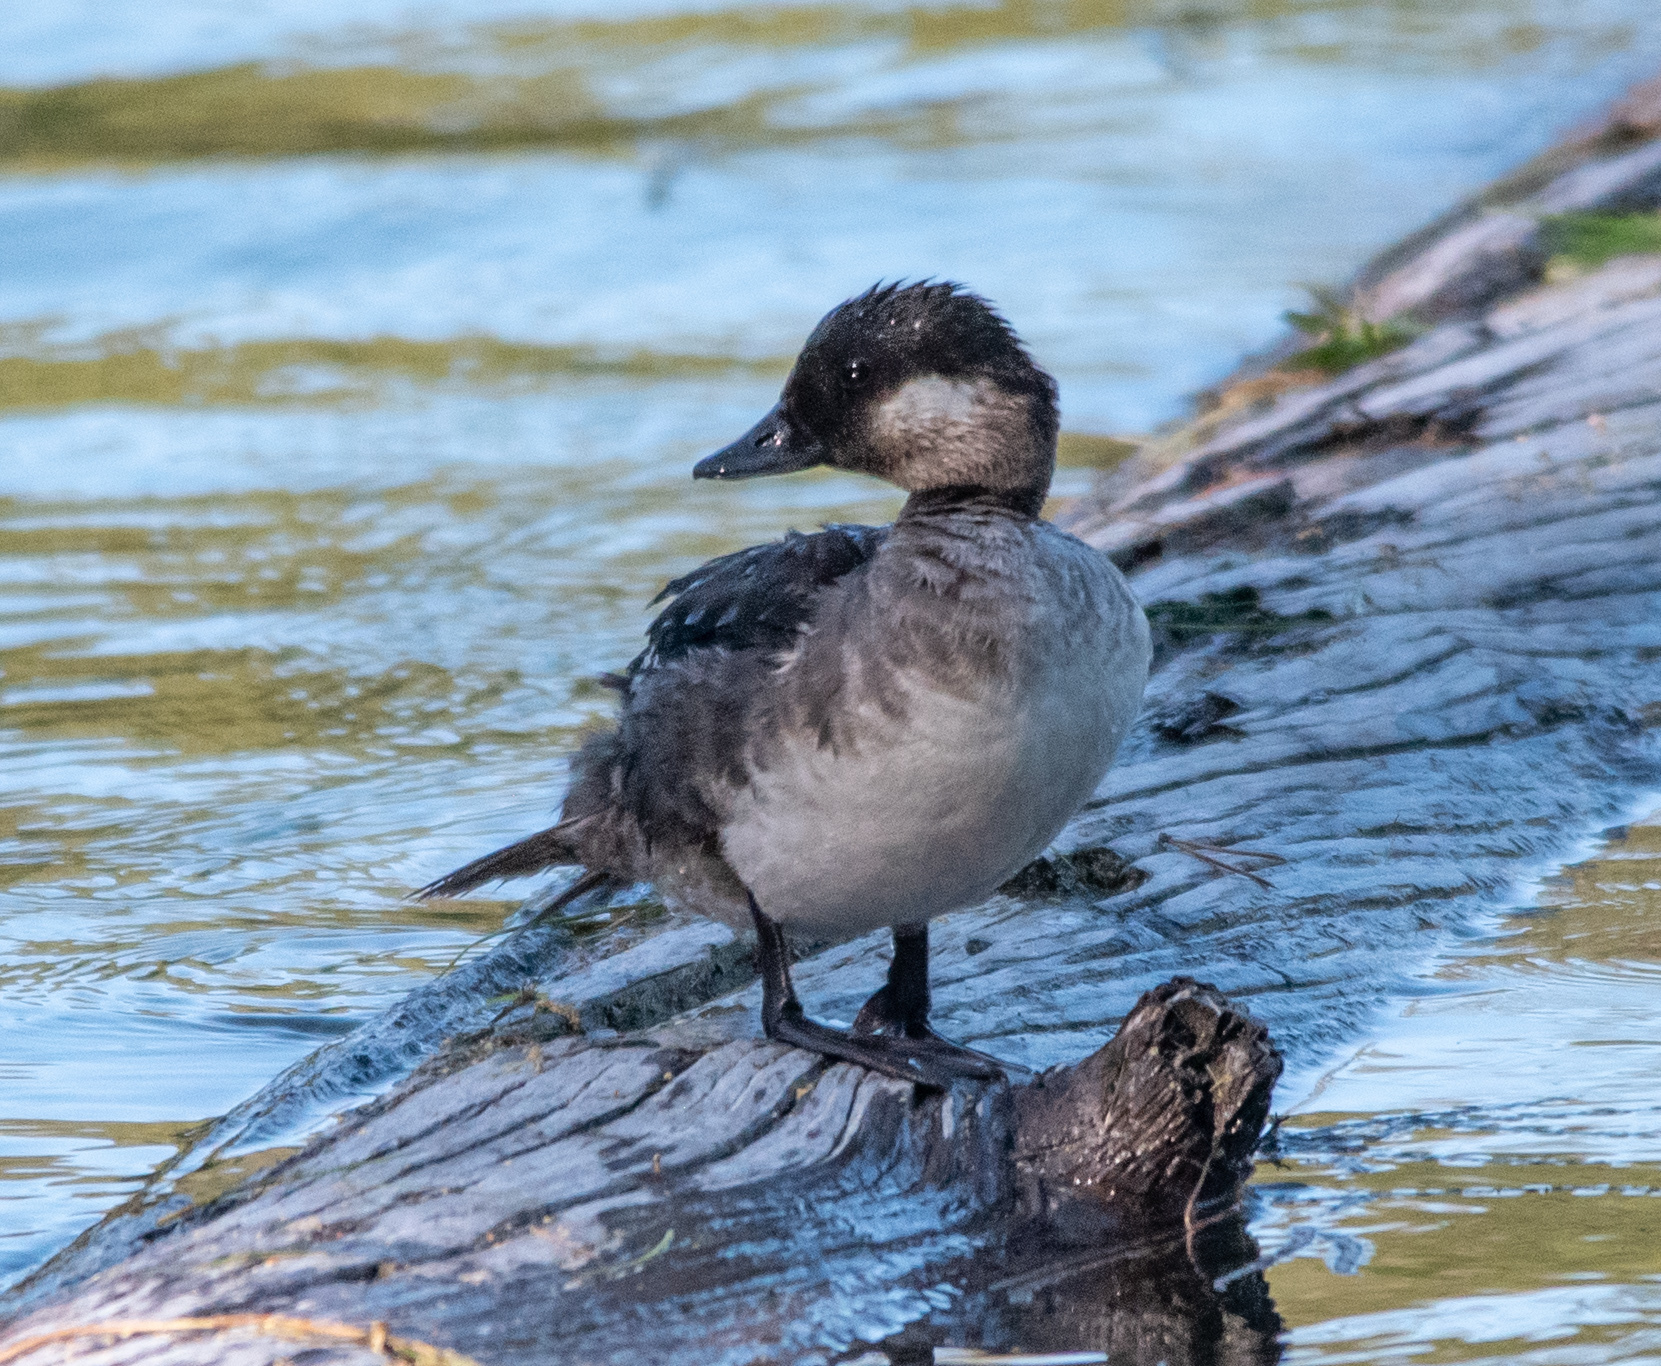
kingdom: Animalia
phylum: Chordata
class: Aves
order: Anseriformes
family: Anatidae
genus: Bucephala
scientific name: Bucephala albeola
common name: Bufflehead
